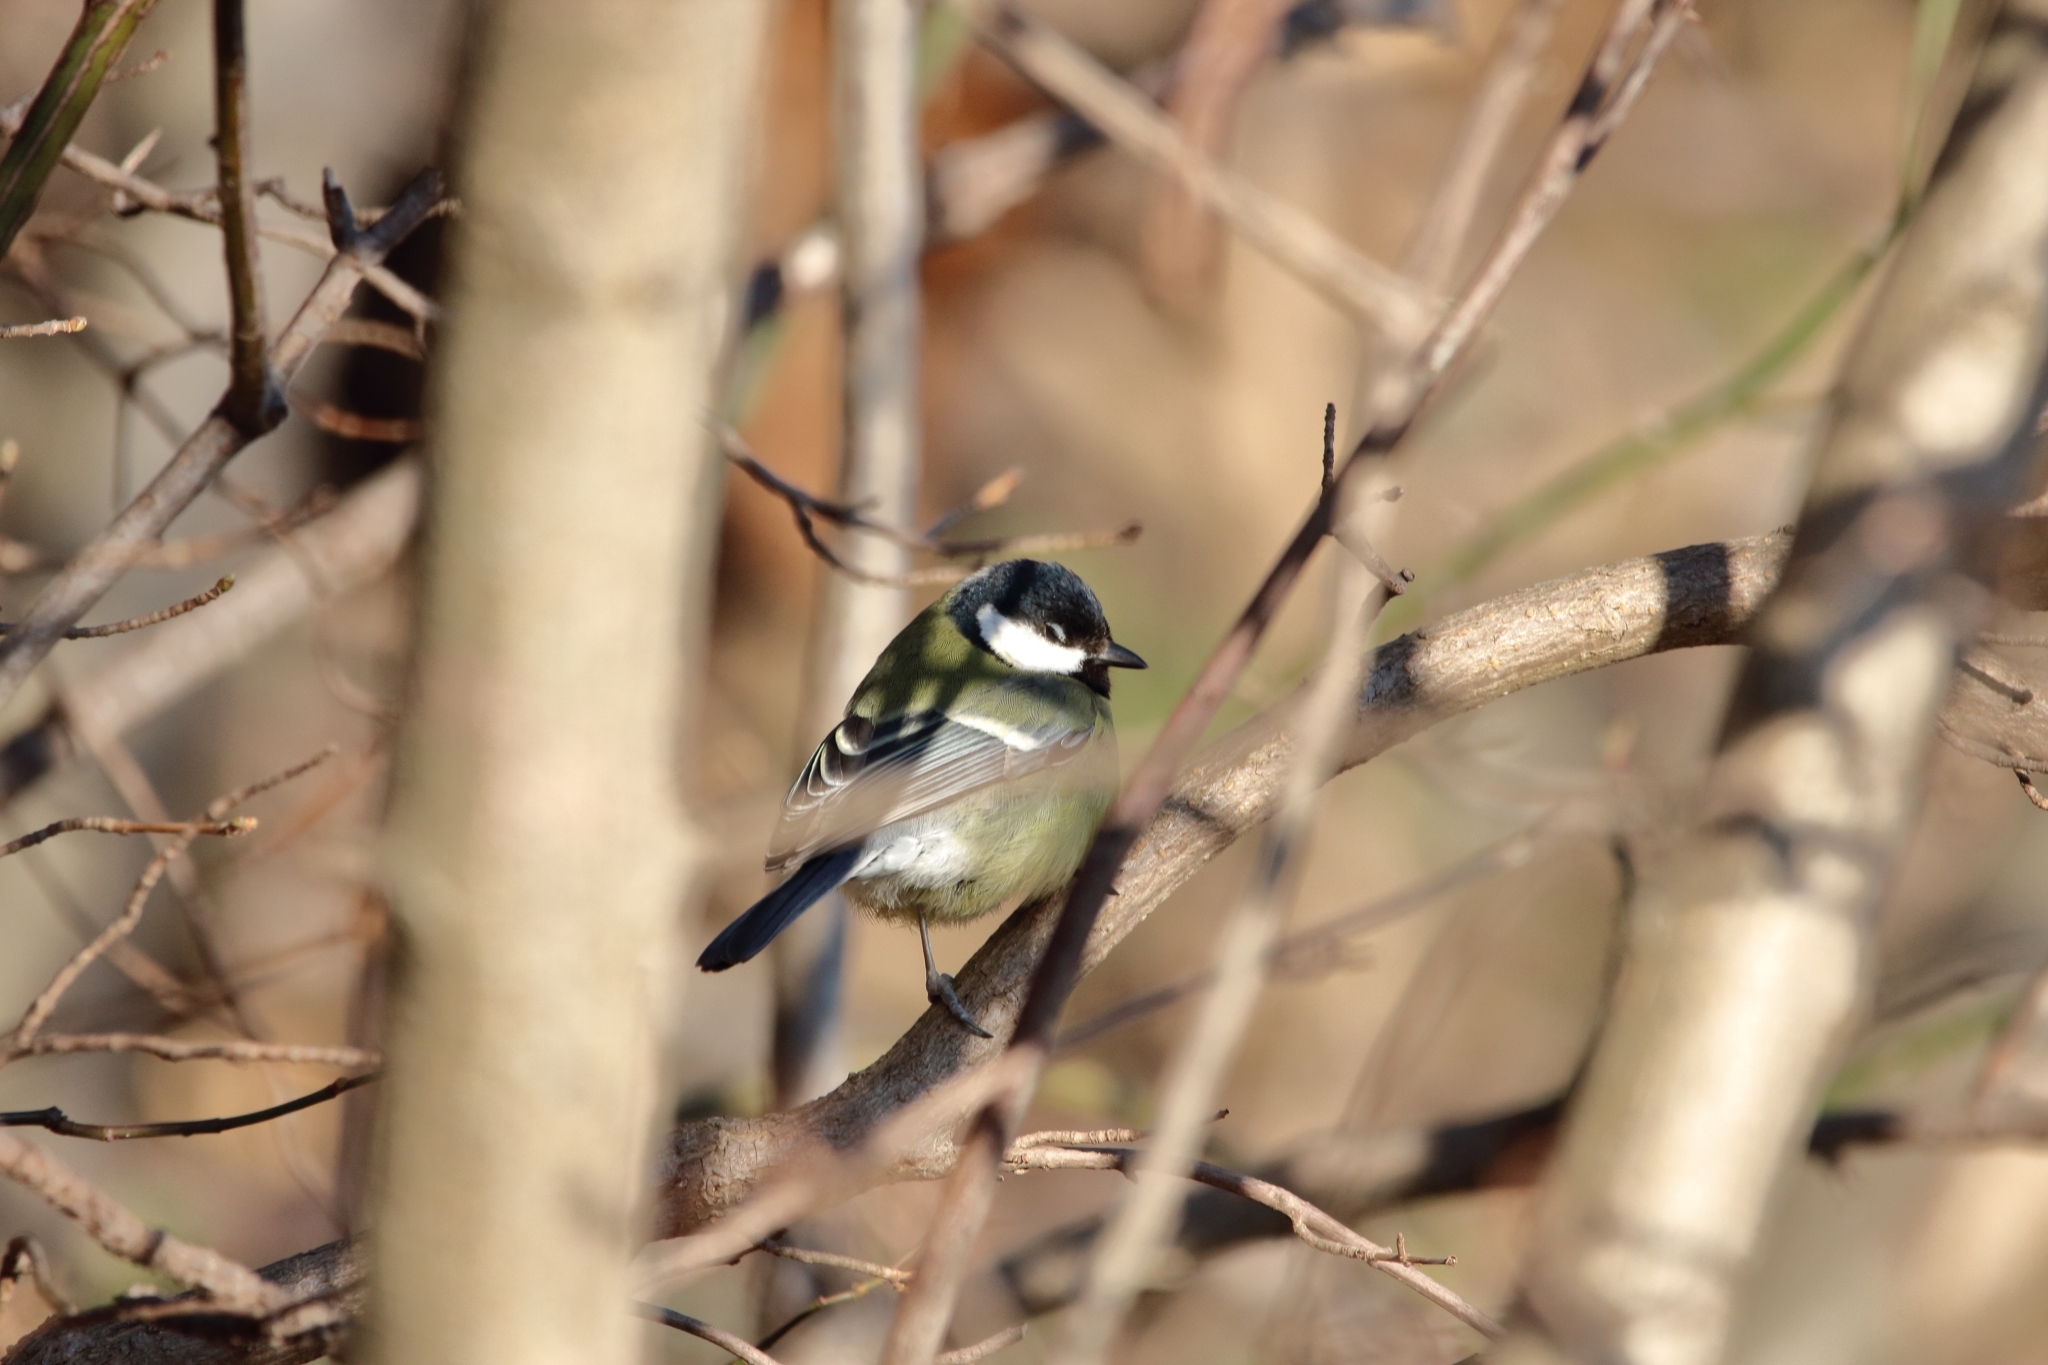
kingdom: Animalia
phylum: Chordata
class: Aves
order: Passeriformes
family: Paridae
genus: Parus
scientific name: Parus major
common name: Great tit
